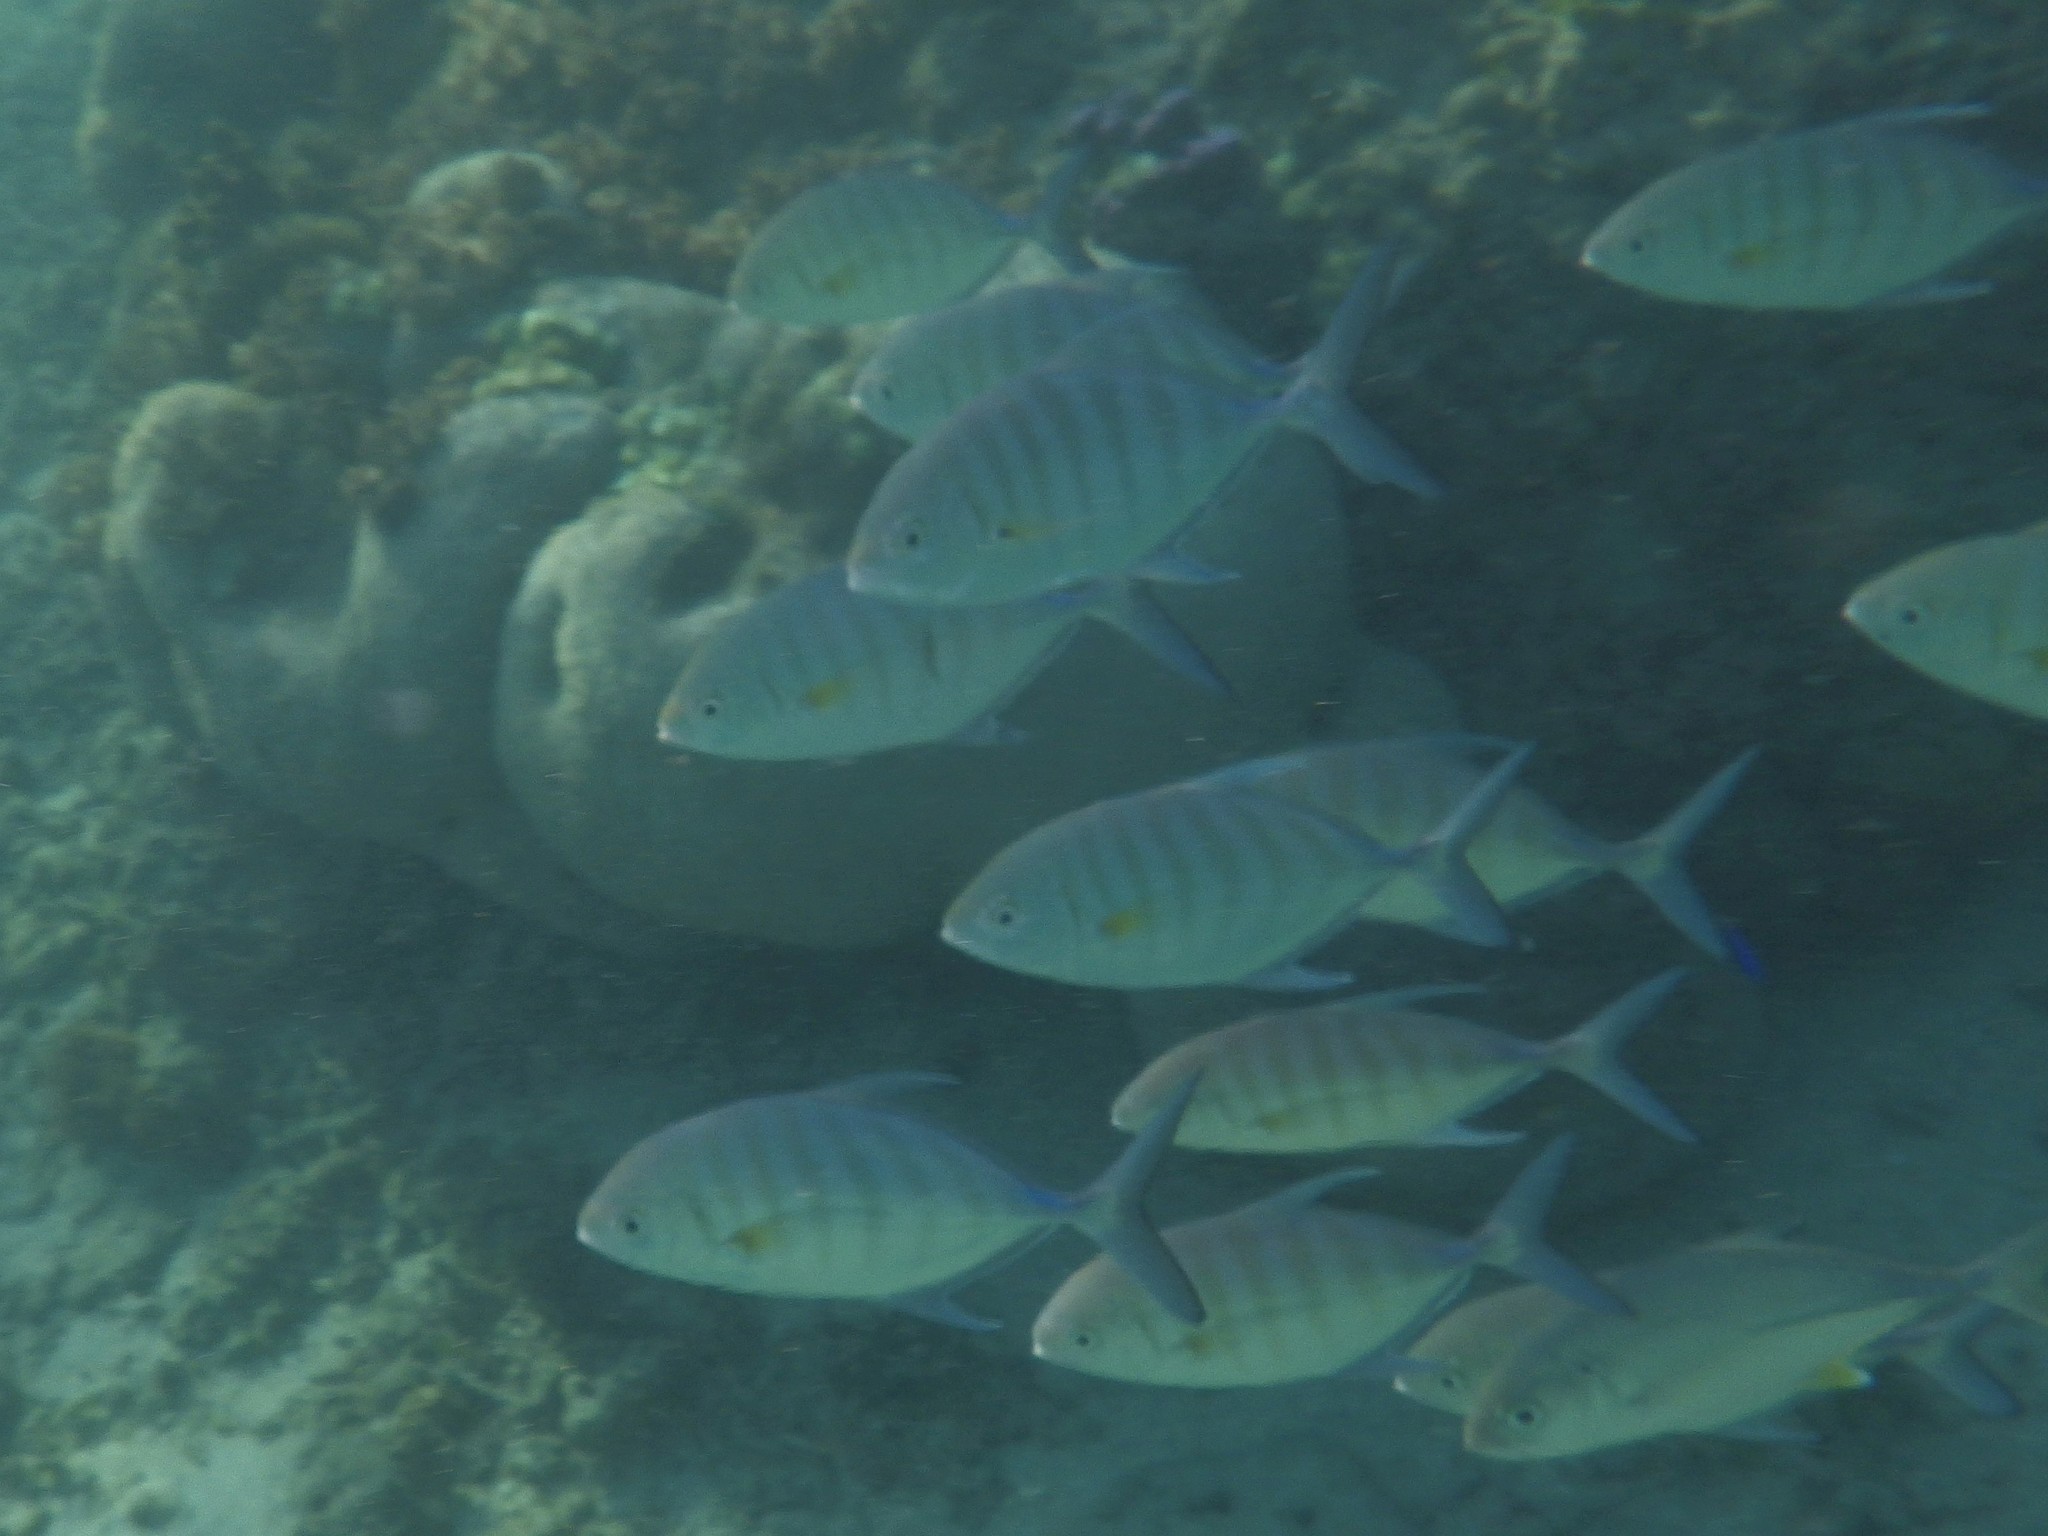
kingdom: Animalia
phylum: Chordata
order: Perciformes
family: Carangidae
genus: Carangoides
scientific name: Carangoides Ferdauia ferdau
